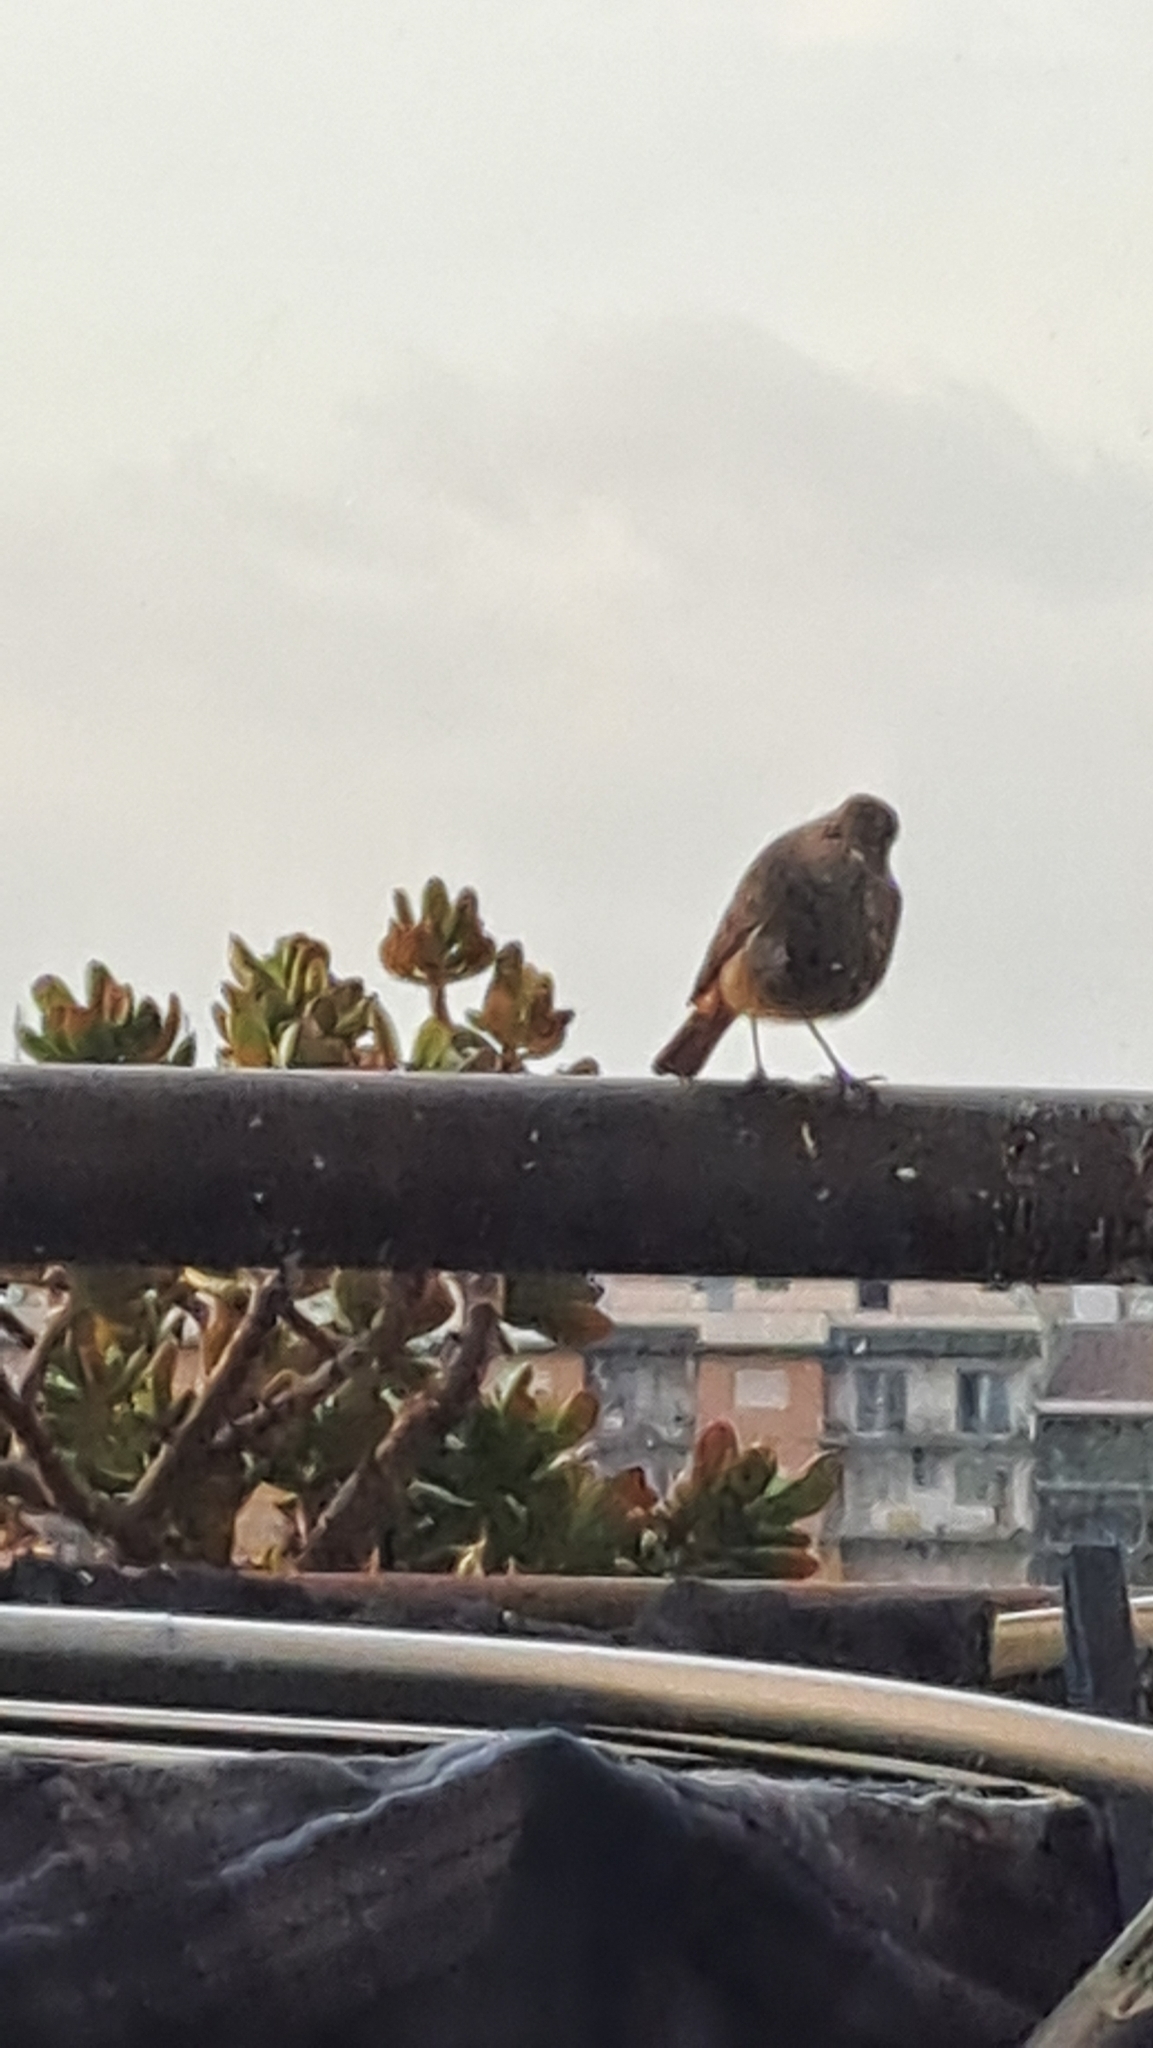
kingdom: Animalia
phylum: Chordata
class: Aves
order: Passeriformes
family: Muscicapidae
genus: Phoenicurus
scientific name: Phoenicurus ochruros
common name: Black redstart
